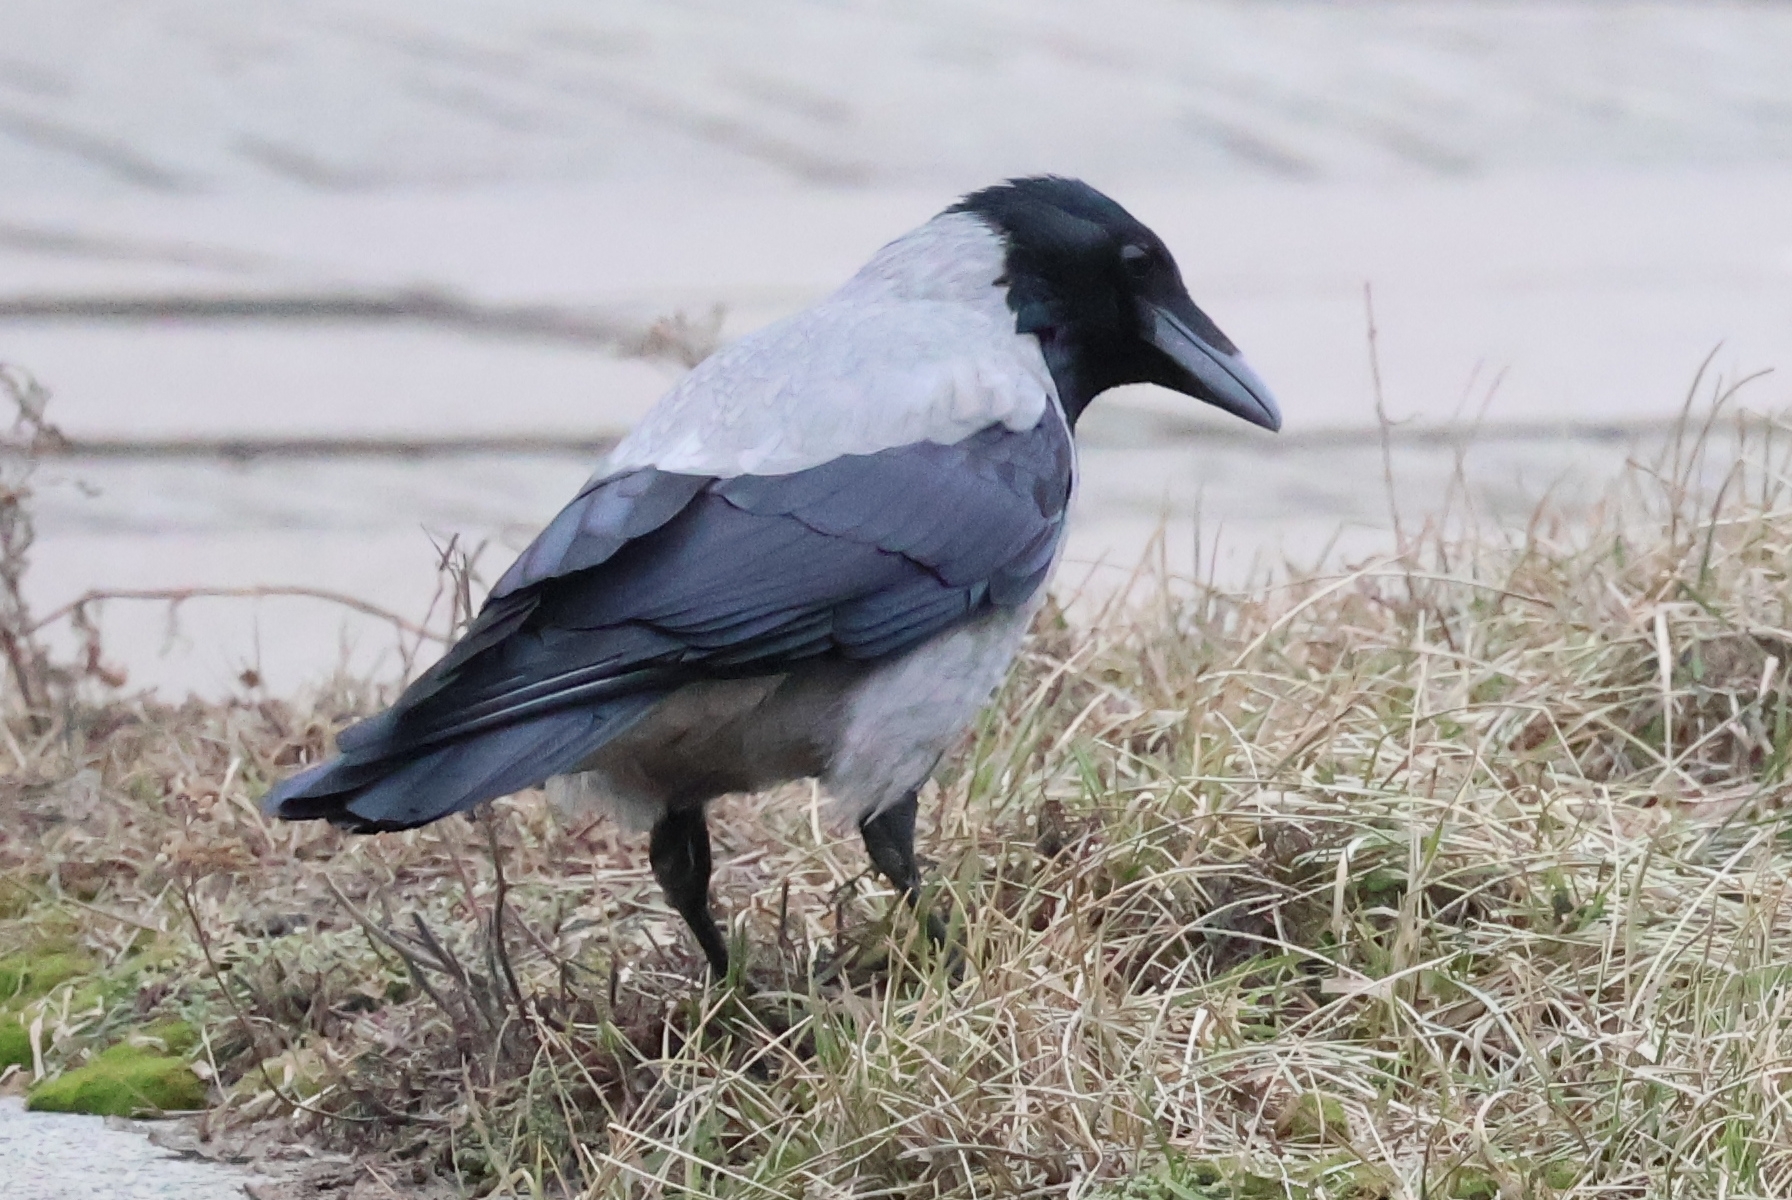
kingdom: Animalia
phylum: Chordata
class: Aves
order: Passeriformes
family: Corvidae
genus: Corvus
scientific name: Corvus cornix
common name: Hooded crow
